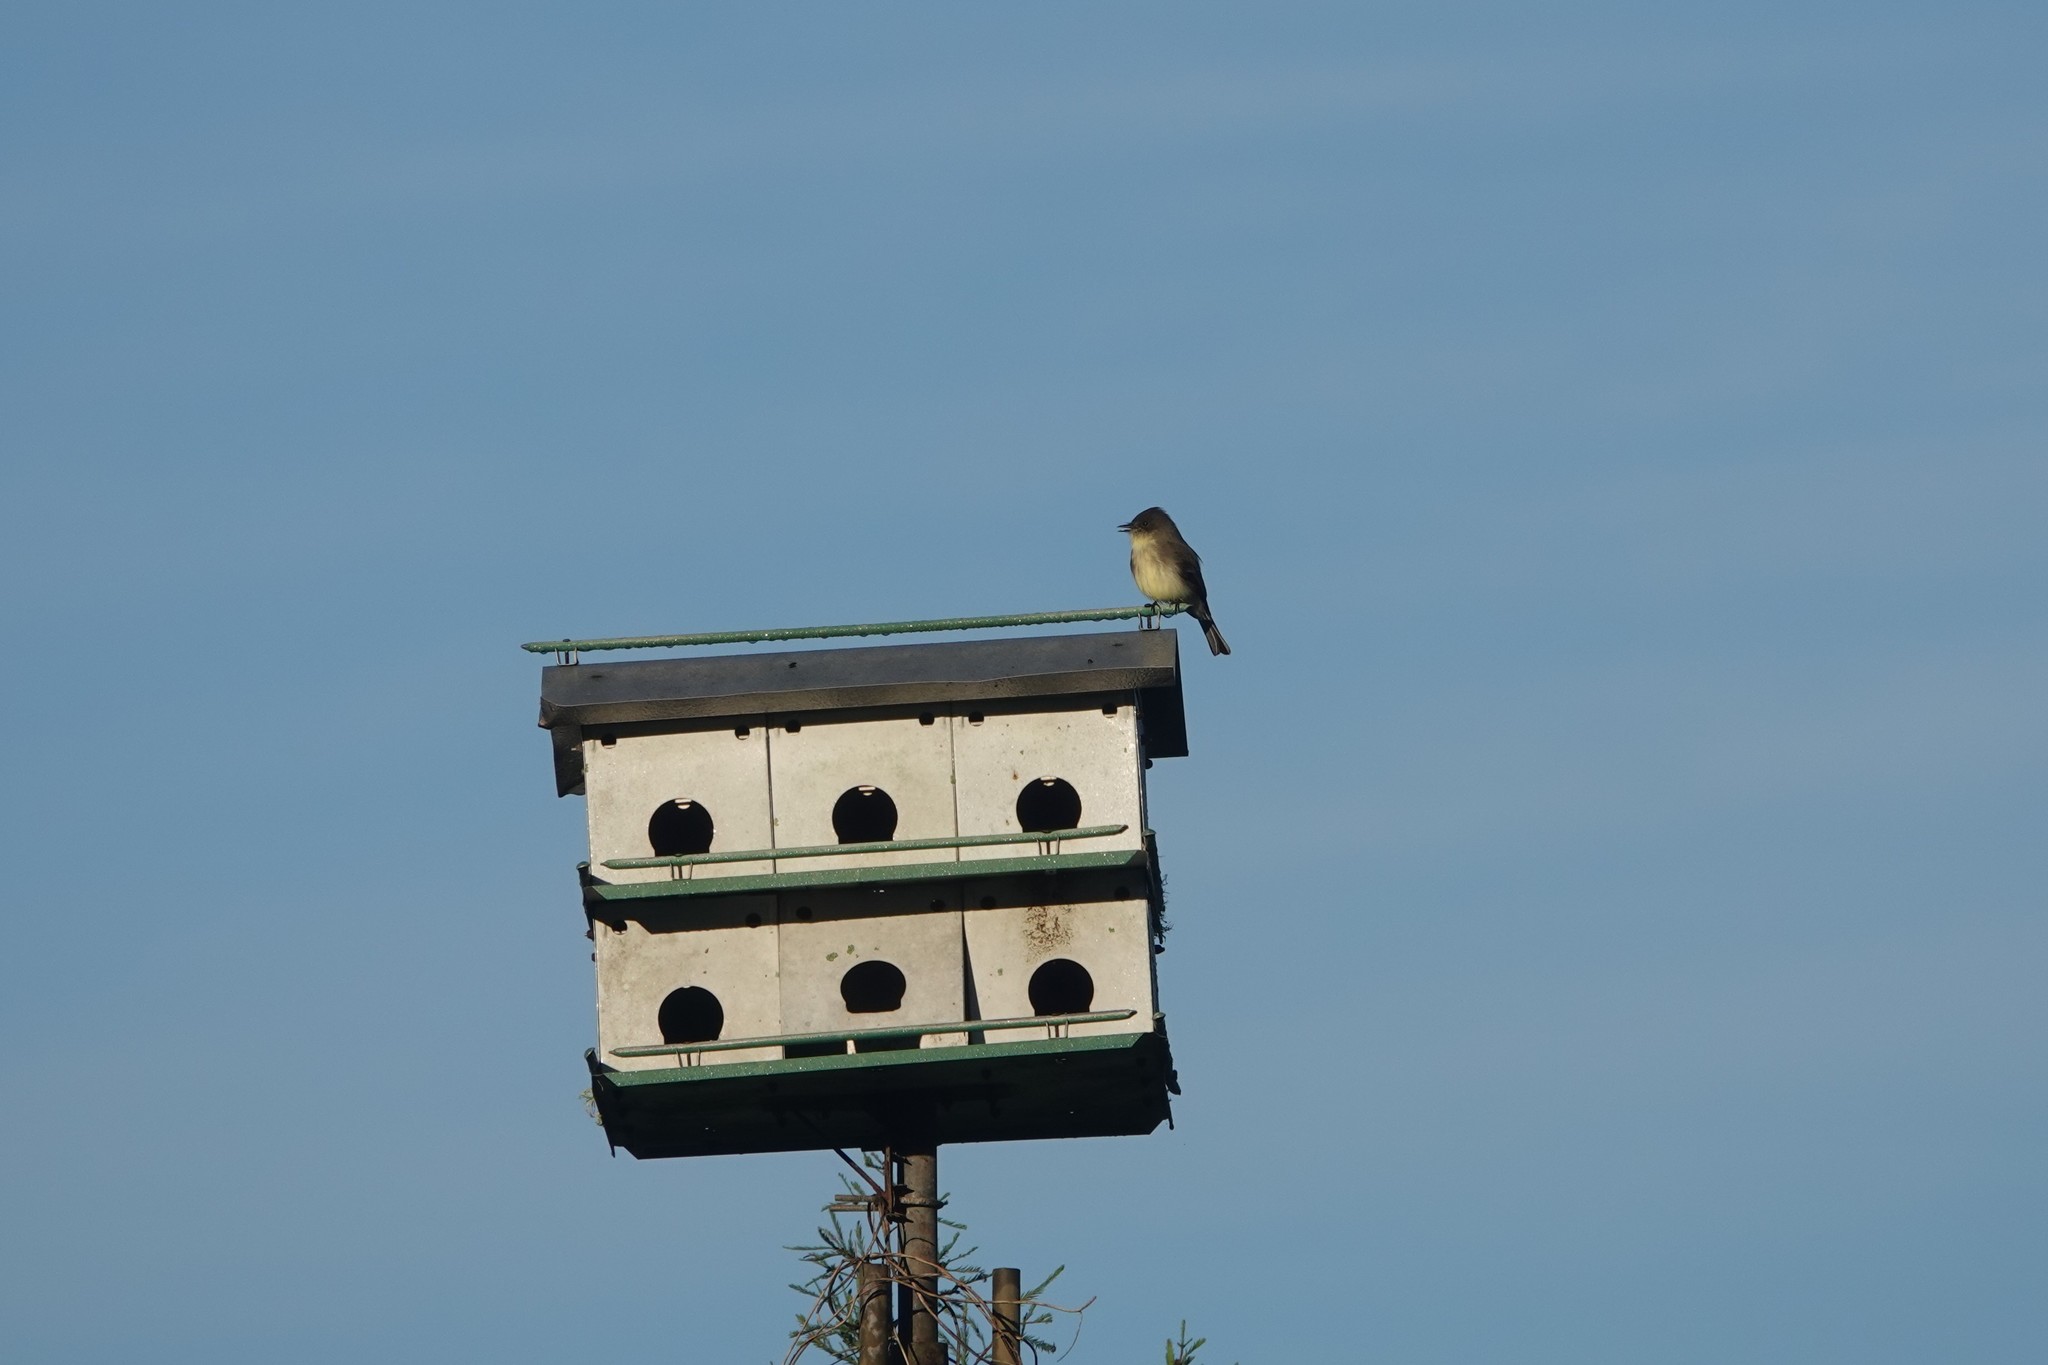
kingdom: Animalia
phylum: Chordata
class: Aves
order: Passeriformes
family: Tyrannidae
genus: Sayornis
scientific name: Sayornis phoebe
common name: Eastern phoebe
